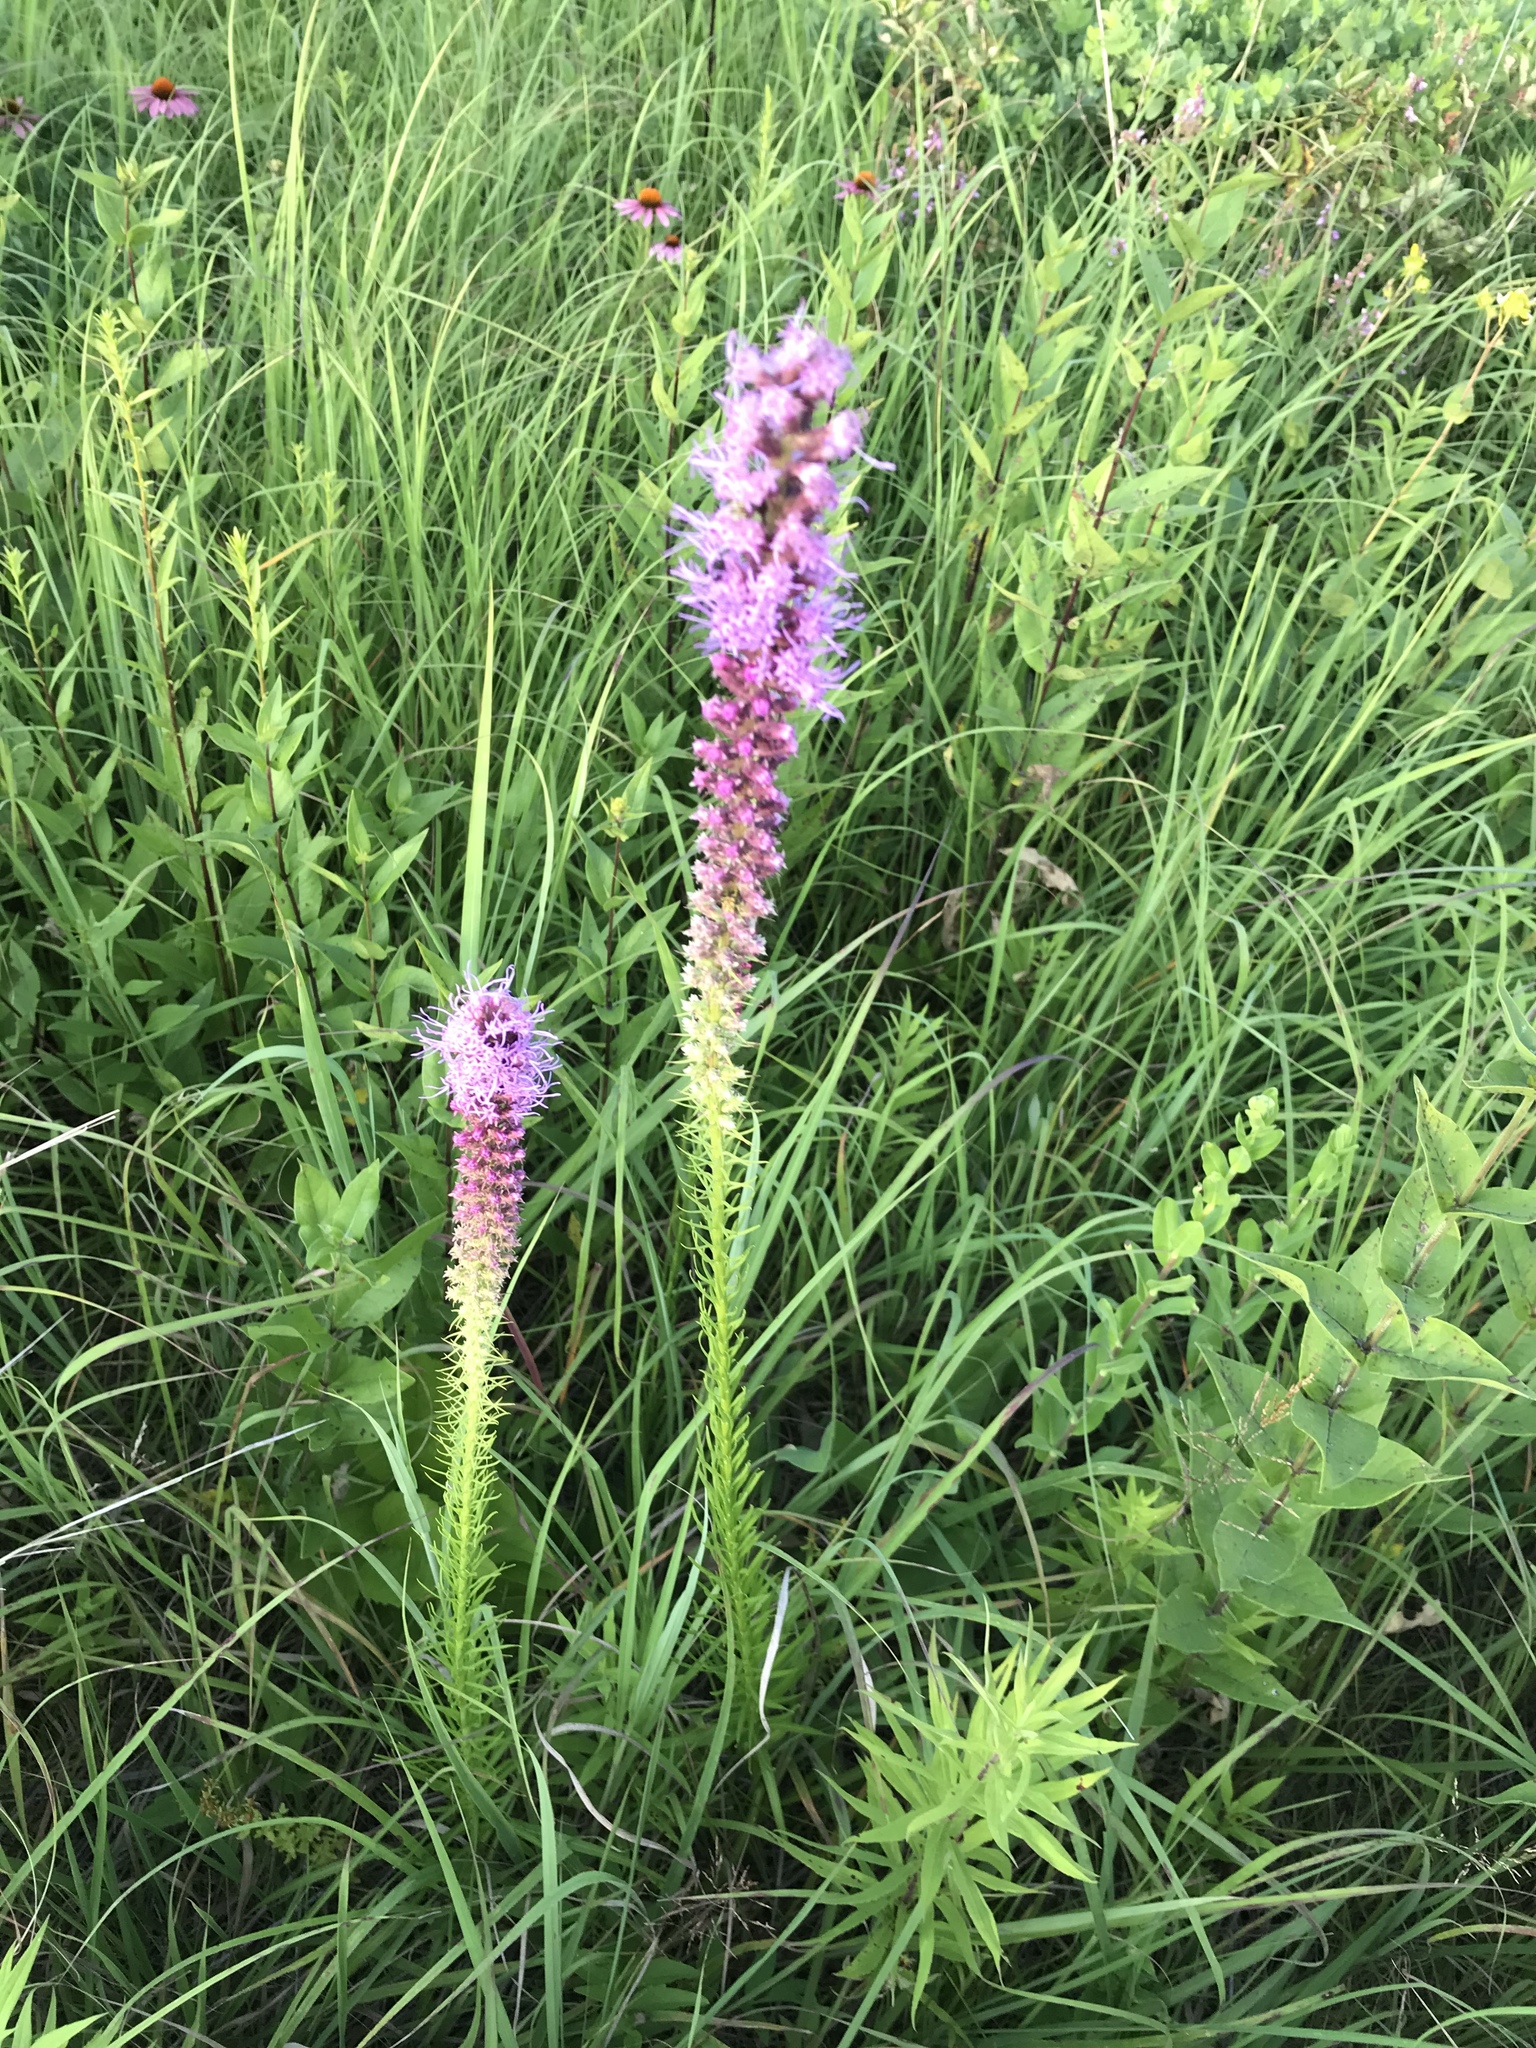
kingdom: Plantae
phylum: Tracheophyta
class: Magnoliopsida
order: Asterales
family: Asteraceae
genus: Liatris
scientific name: Liatris pycnostachya
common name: Cattail gayfeather
